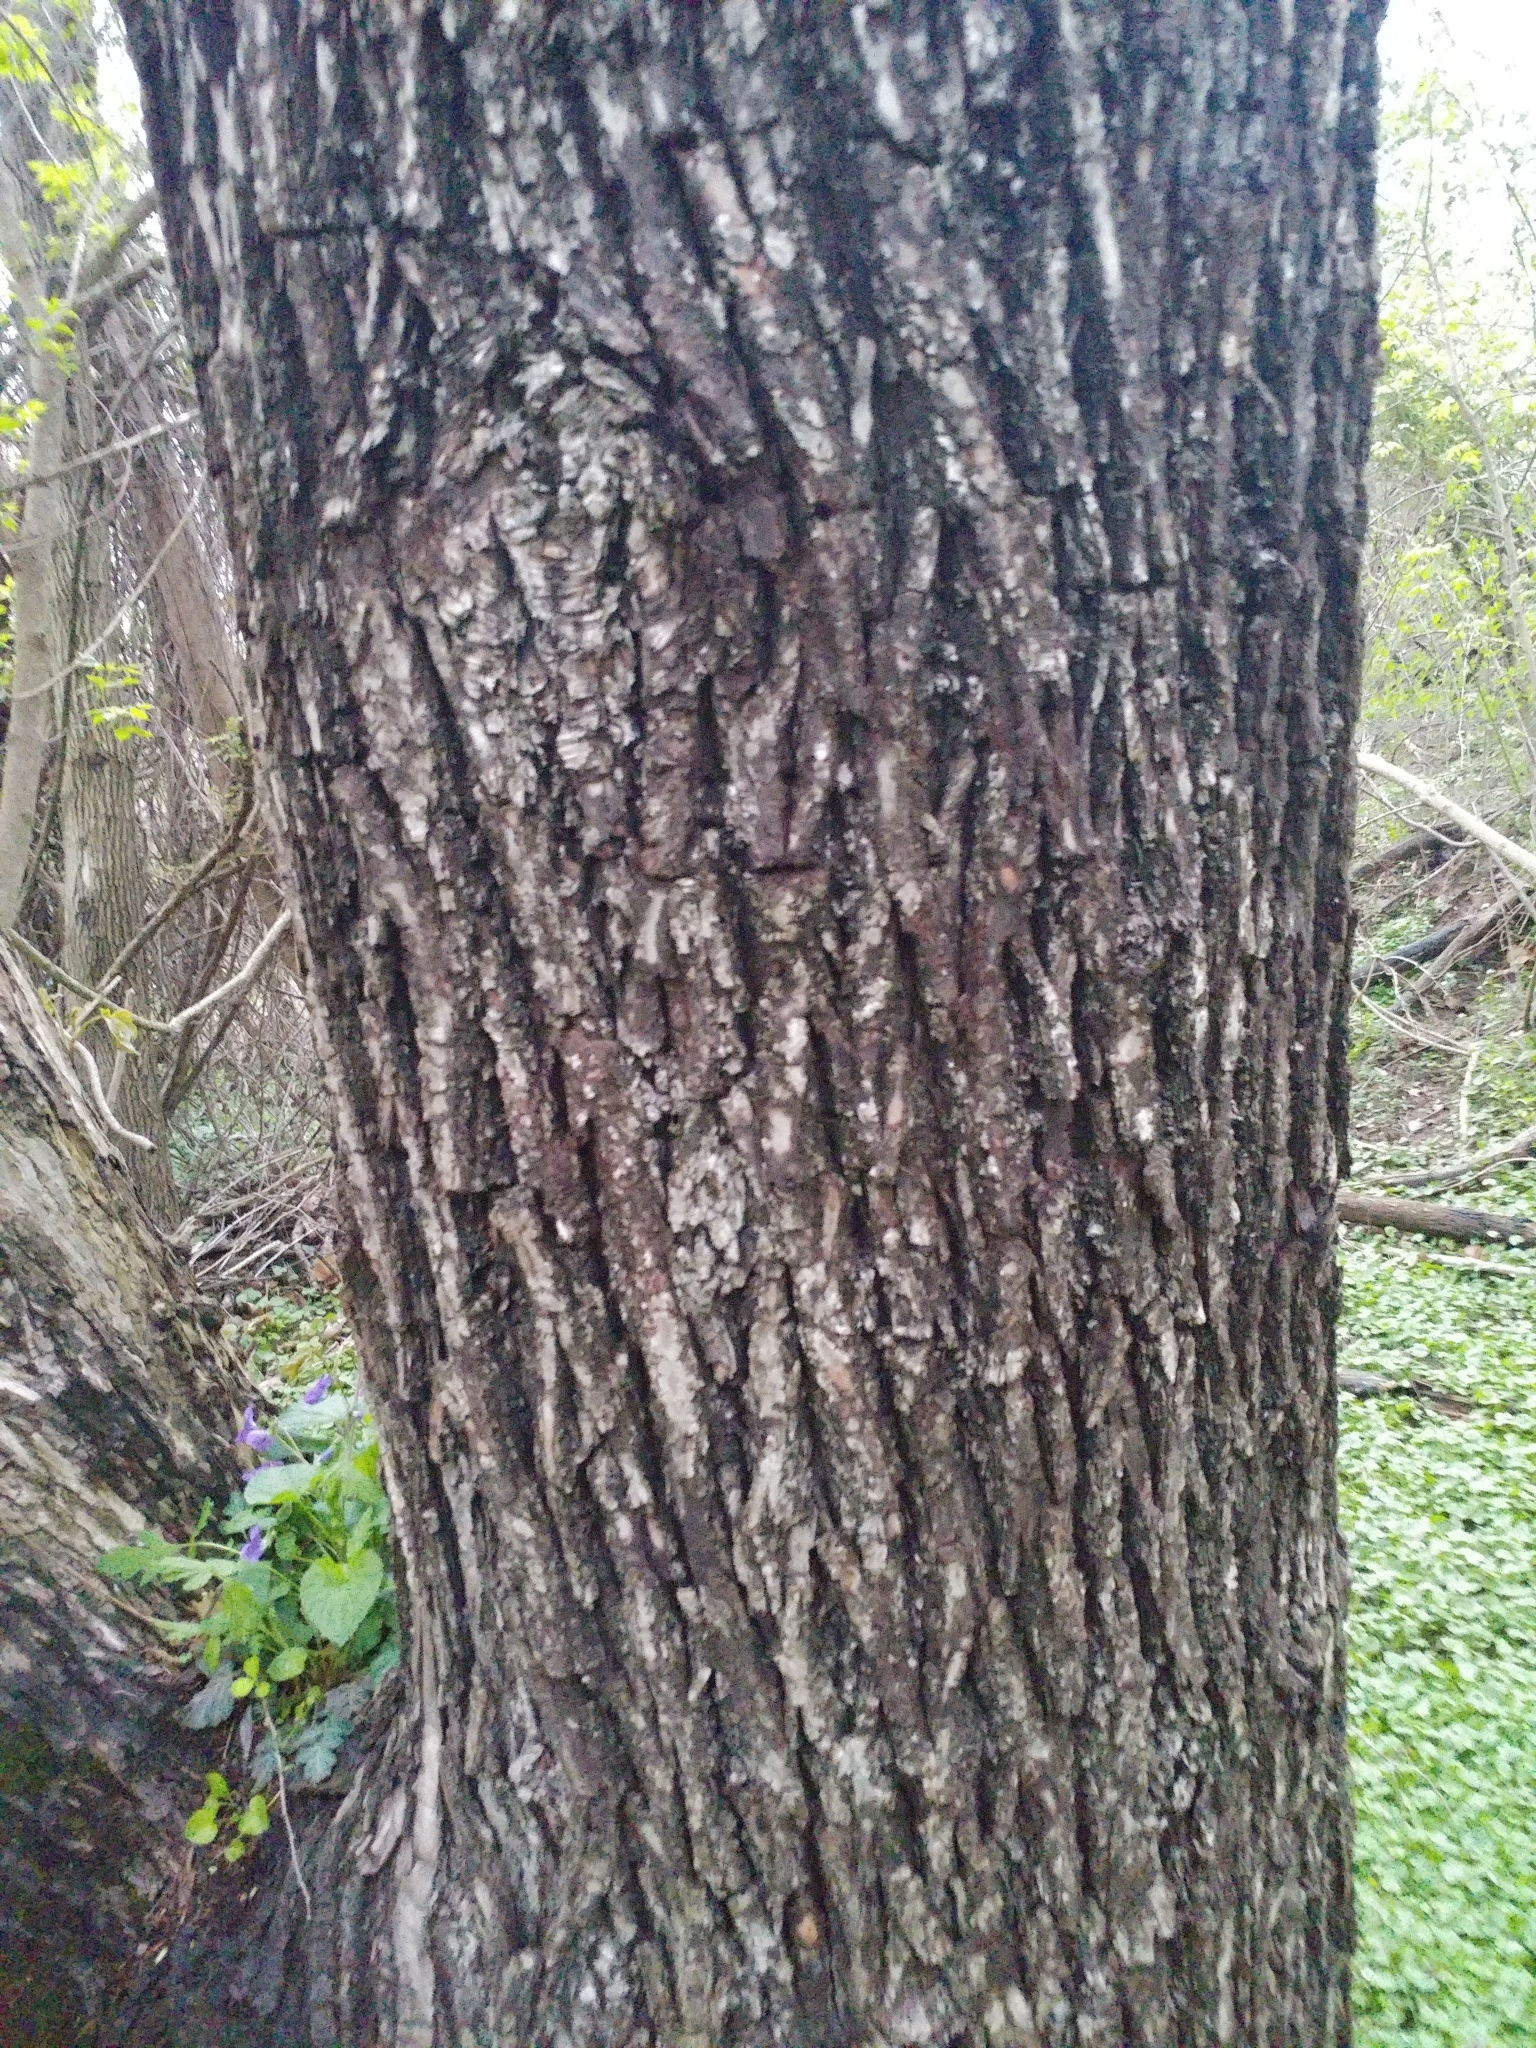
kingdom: Plantae
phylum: Tracheophyta
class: Magnoliopsida
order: Malpighiales
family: Salicaceae
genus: Salix
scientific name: Salix nigra
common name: Black willow
